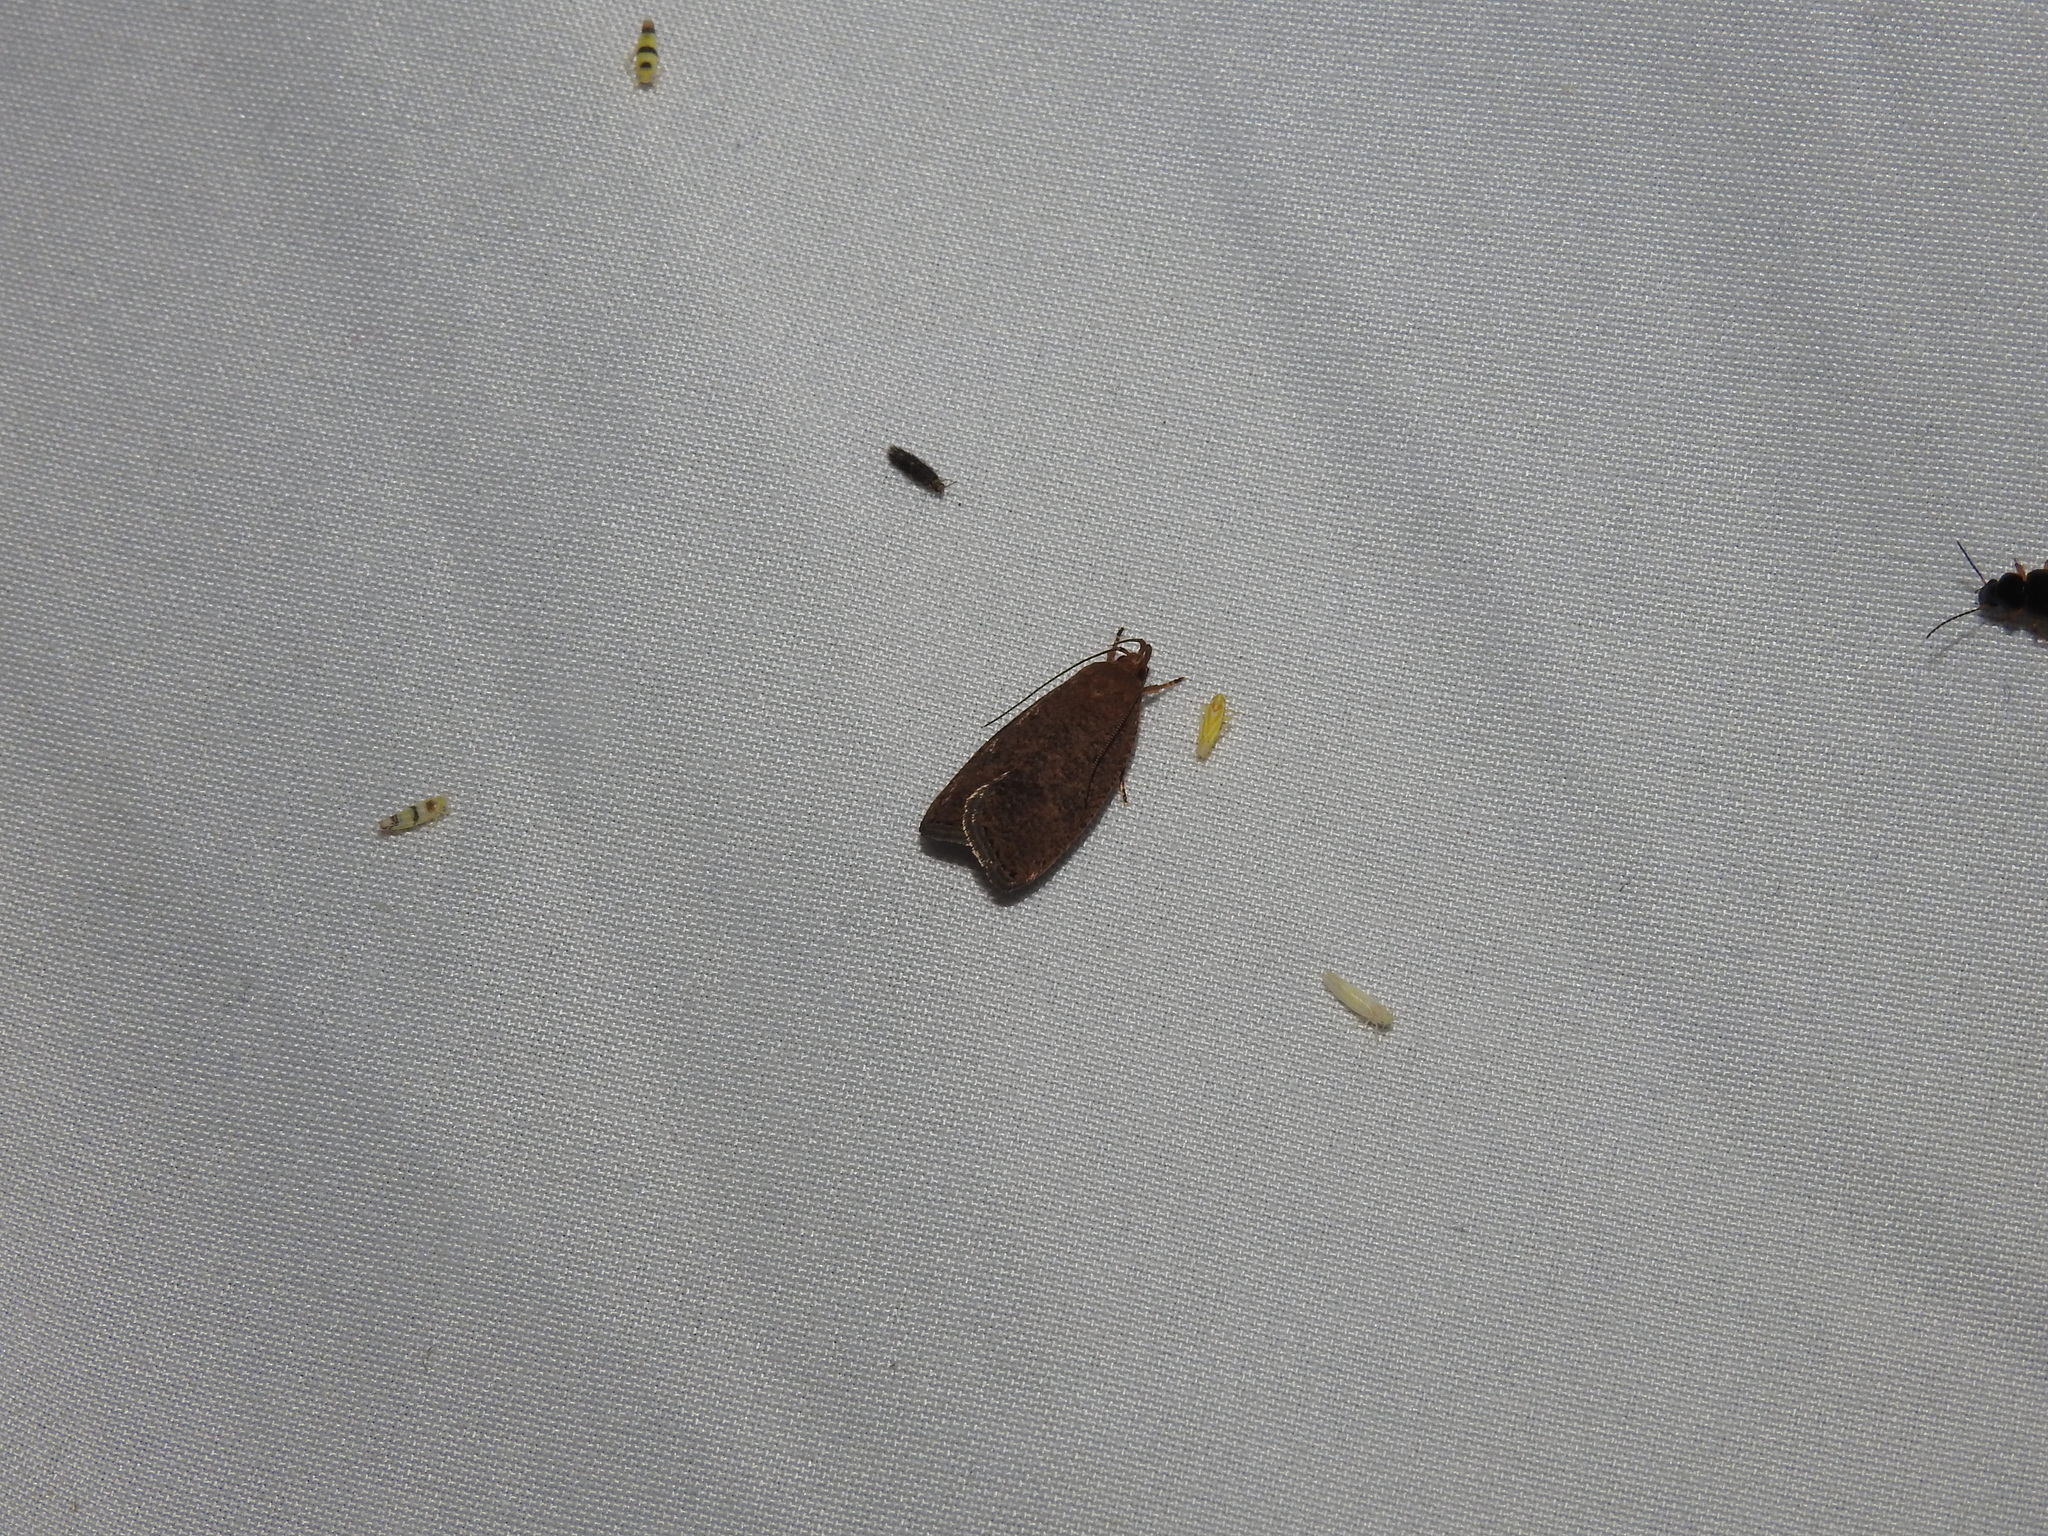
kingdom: Animalia
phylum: Arthropoda
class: Insecta
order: Lepidoptera
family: Depressariidae
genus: Psilocorsis
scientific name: Psilocorsis reflexella
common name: Dotted leaftier moth
